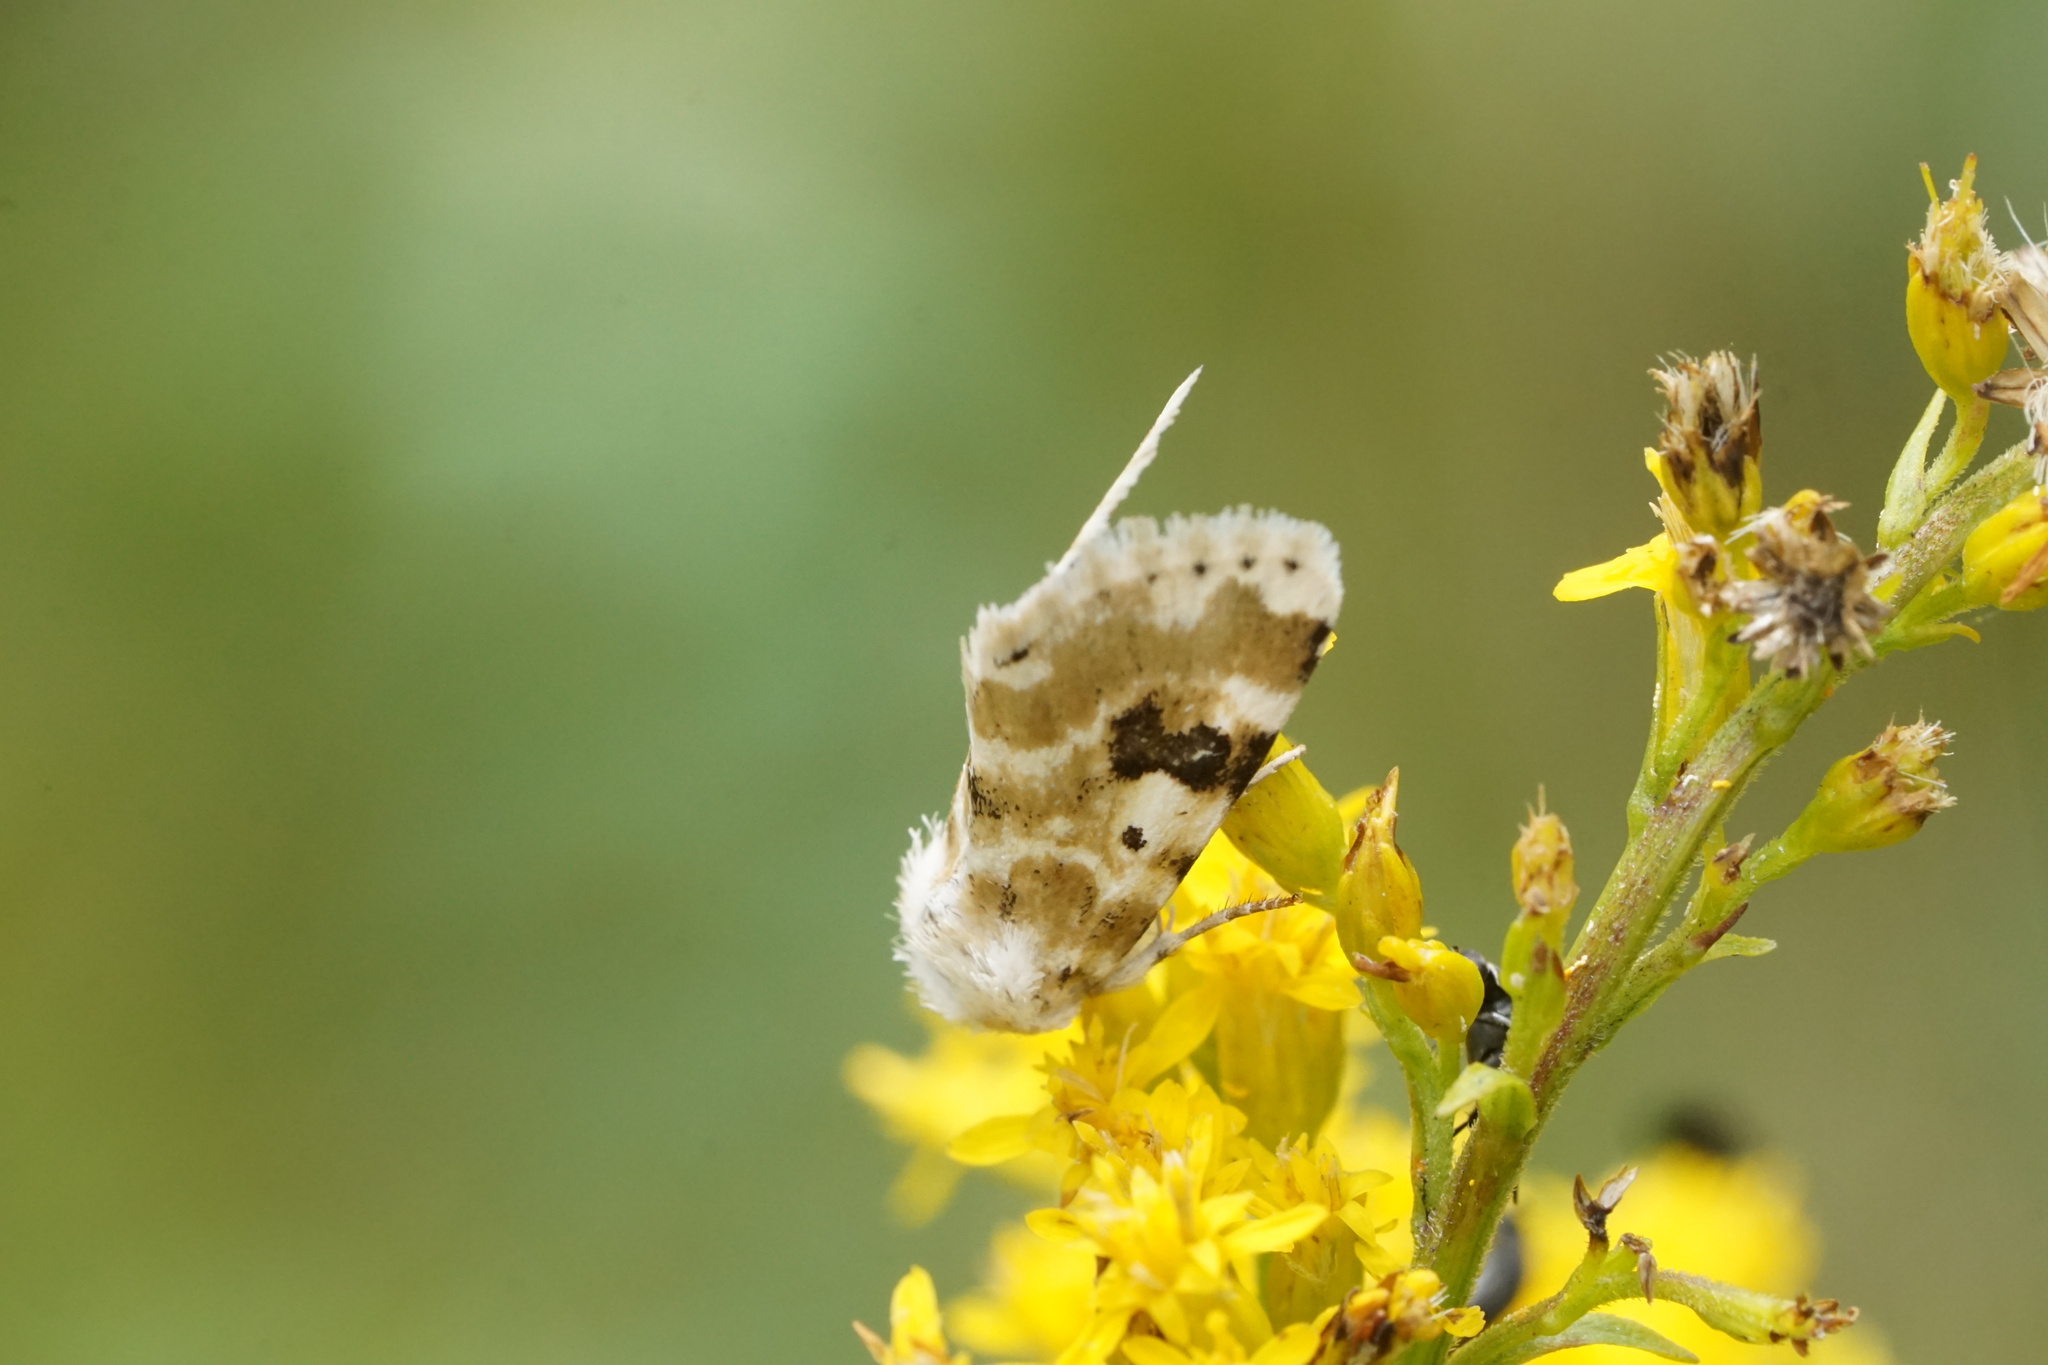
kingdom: Animalia
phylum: Arthropoda
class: Insecta
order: Lepidoptera
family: Noctuidae
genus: Schinia
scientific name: Schinia nundina
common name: Goldenrod flower moth
